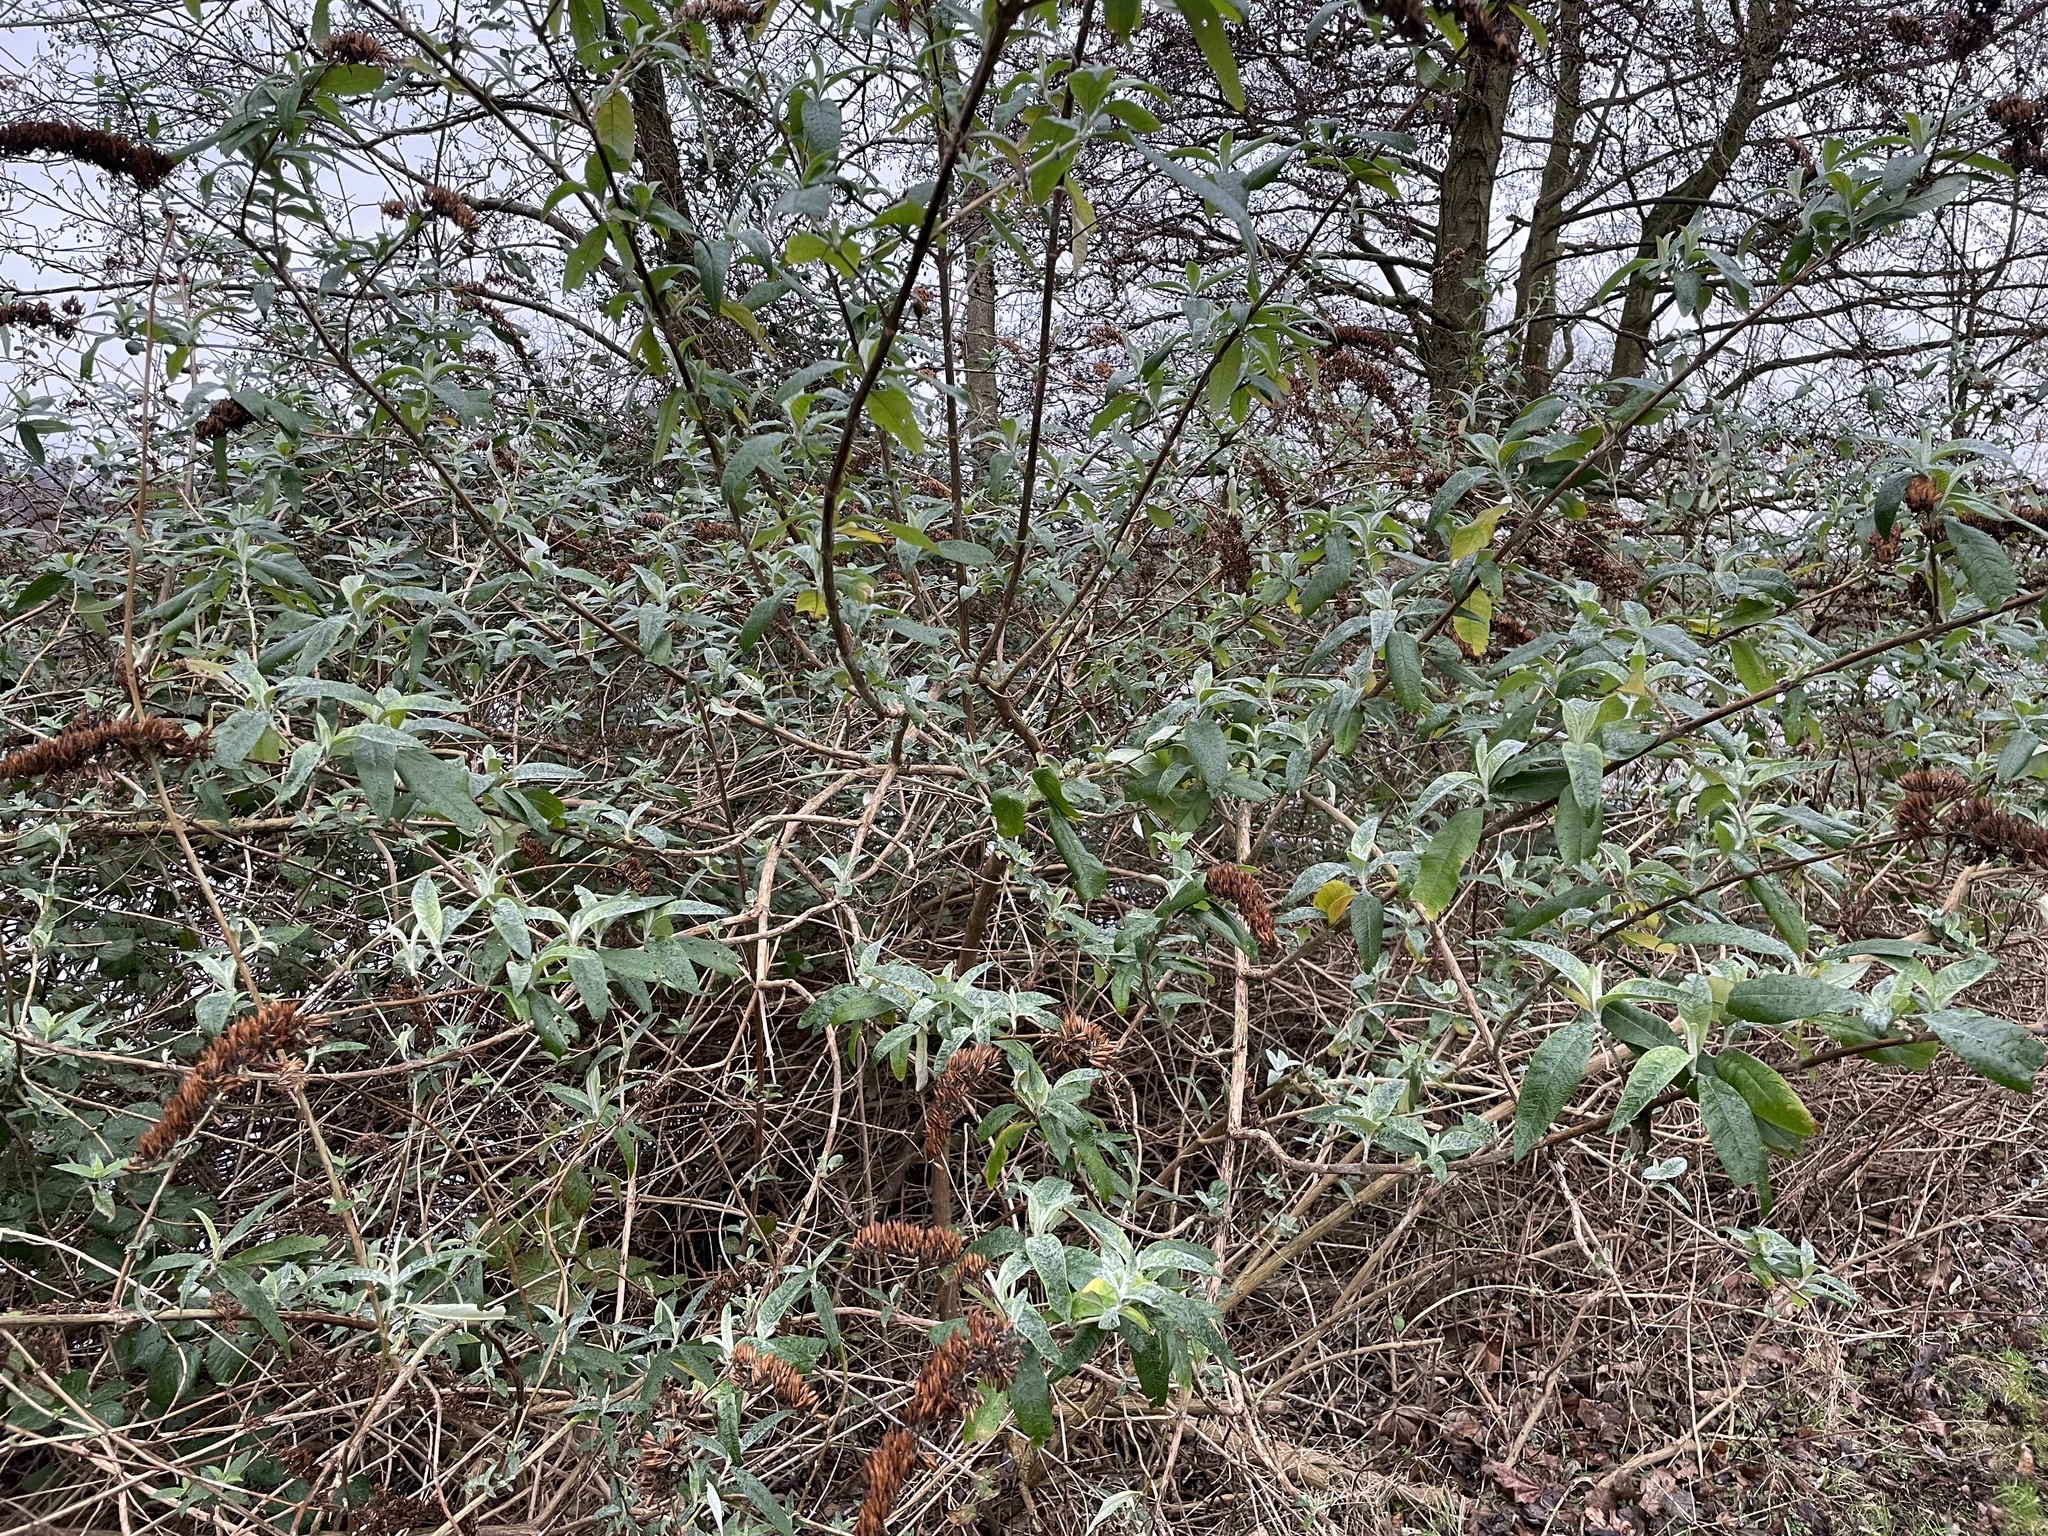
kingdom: Plantae
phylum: Tracheophyta
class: Magnoliopsida
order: Lamiales
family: Scrophulariaceae
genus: Buddleja
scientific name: Buddleja davidii
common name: Butterfly-bush
